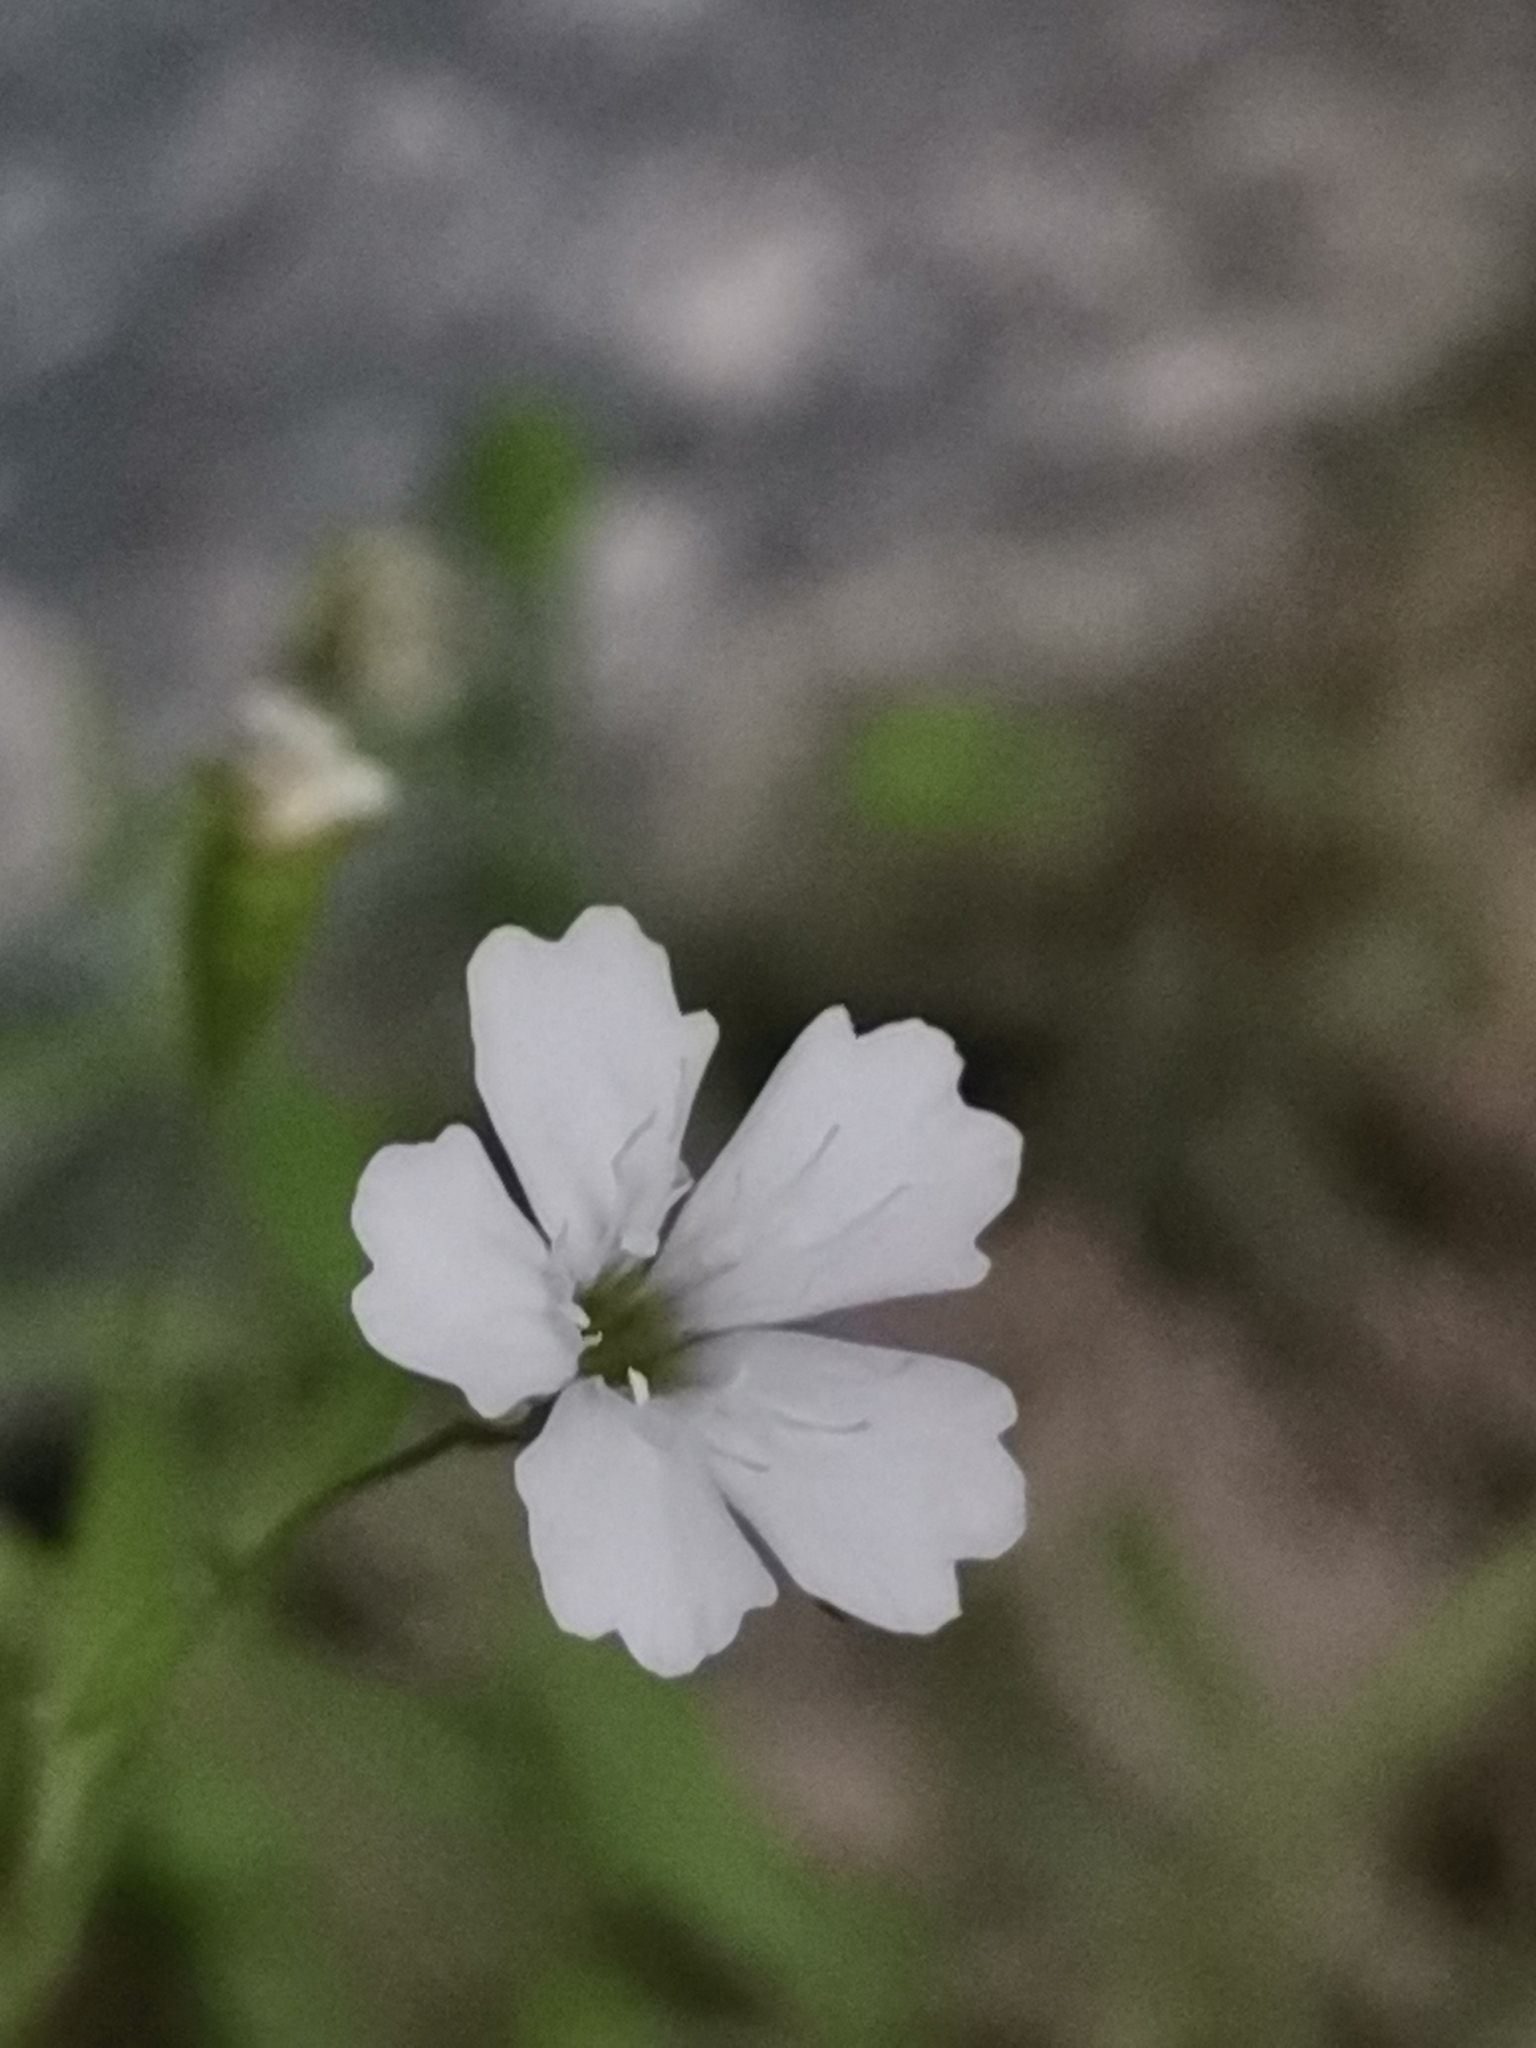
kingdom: Plantae
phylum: Tracheophyta
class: Magnoliopsida
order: Caryophyllales
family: Caryophyllaceae
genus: Heliosperma
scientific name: Heliosperma veselskyi
